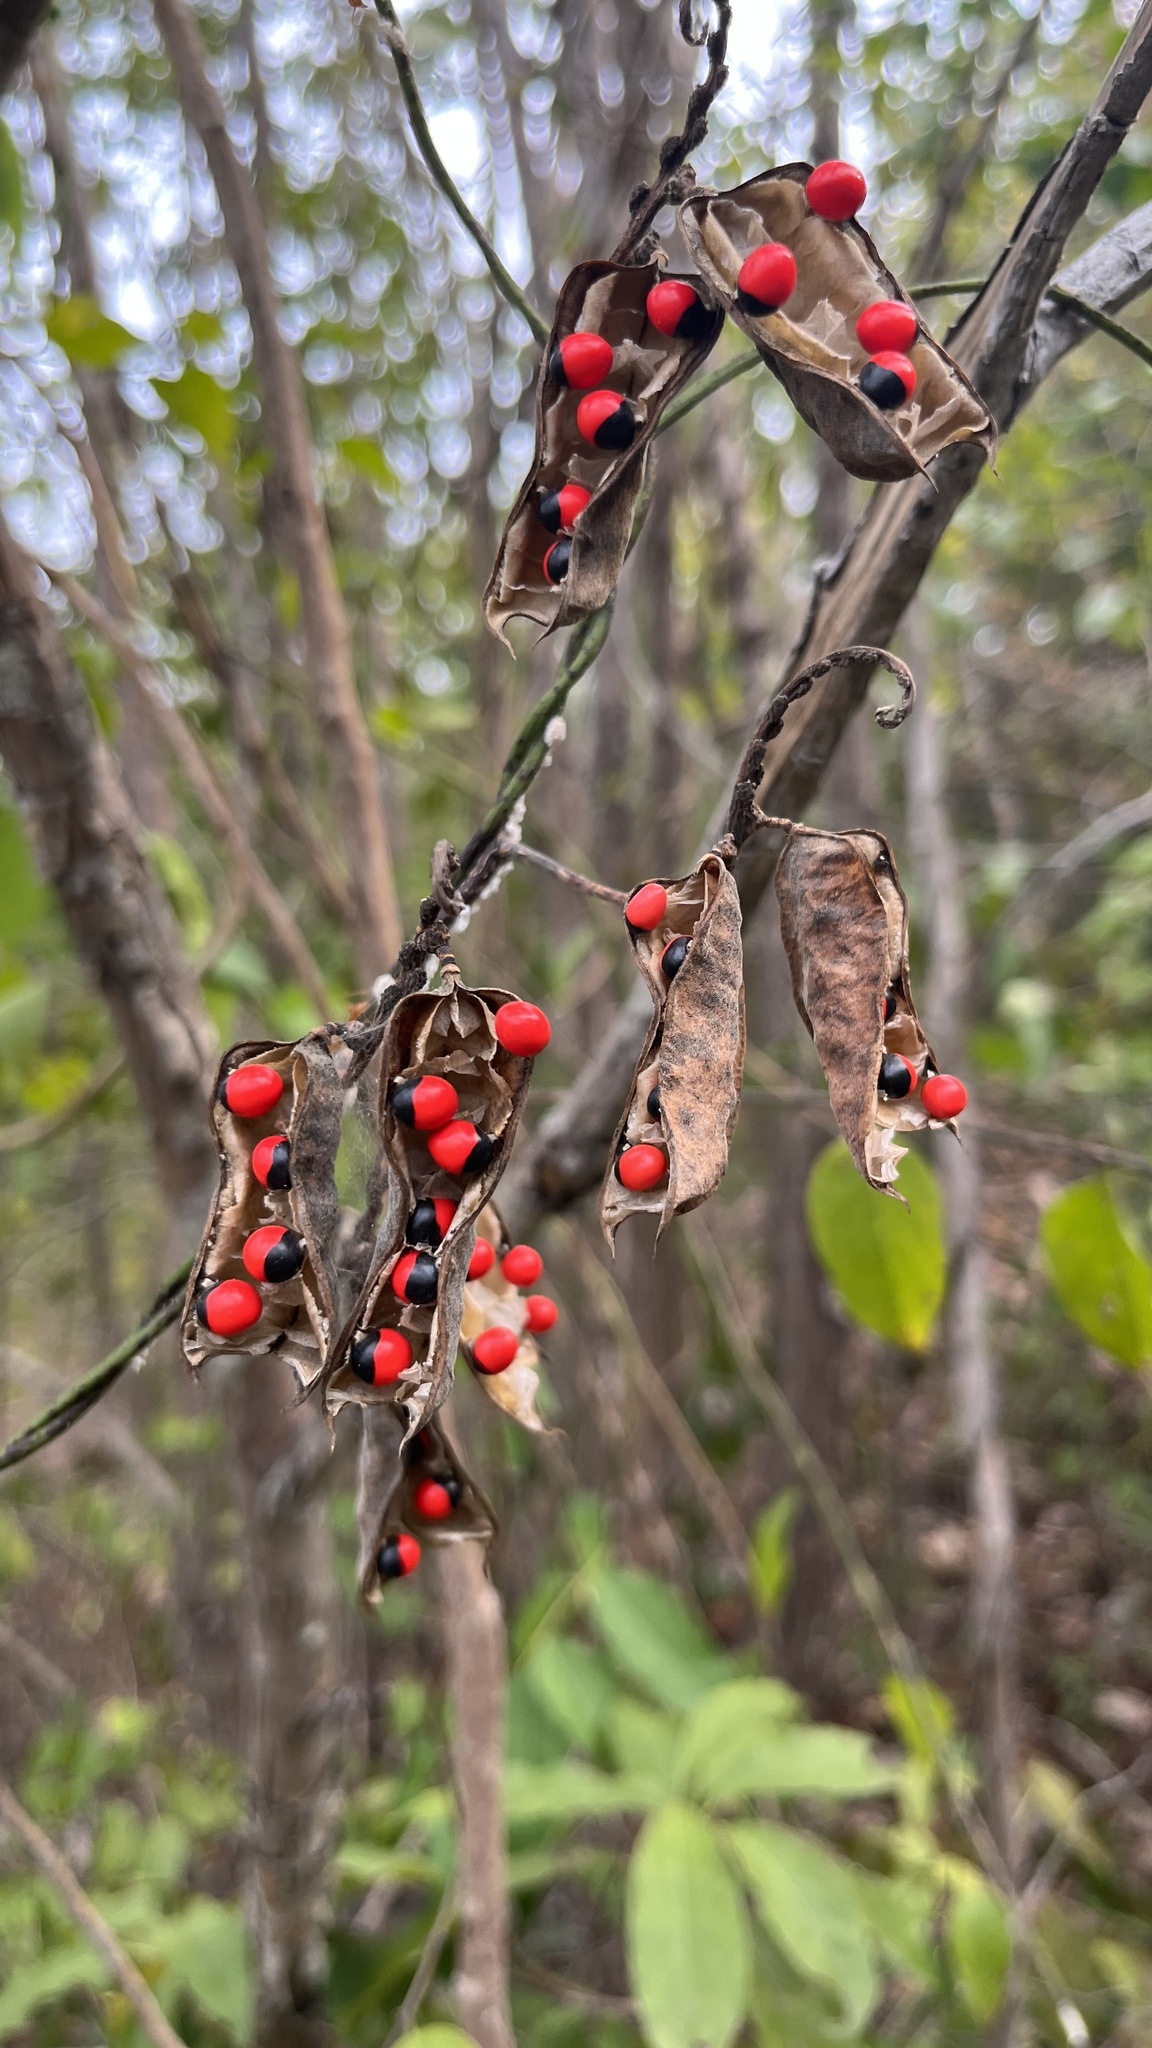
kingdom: Plantae
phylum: Tracheophyta
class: Magnoliopsida
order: Fabales
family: Fabaceae
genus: Abrus
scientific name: Abrus precatorius
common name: Rosarypea
